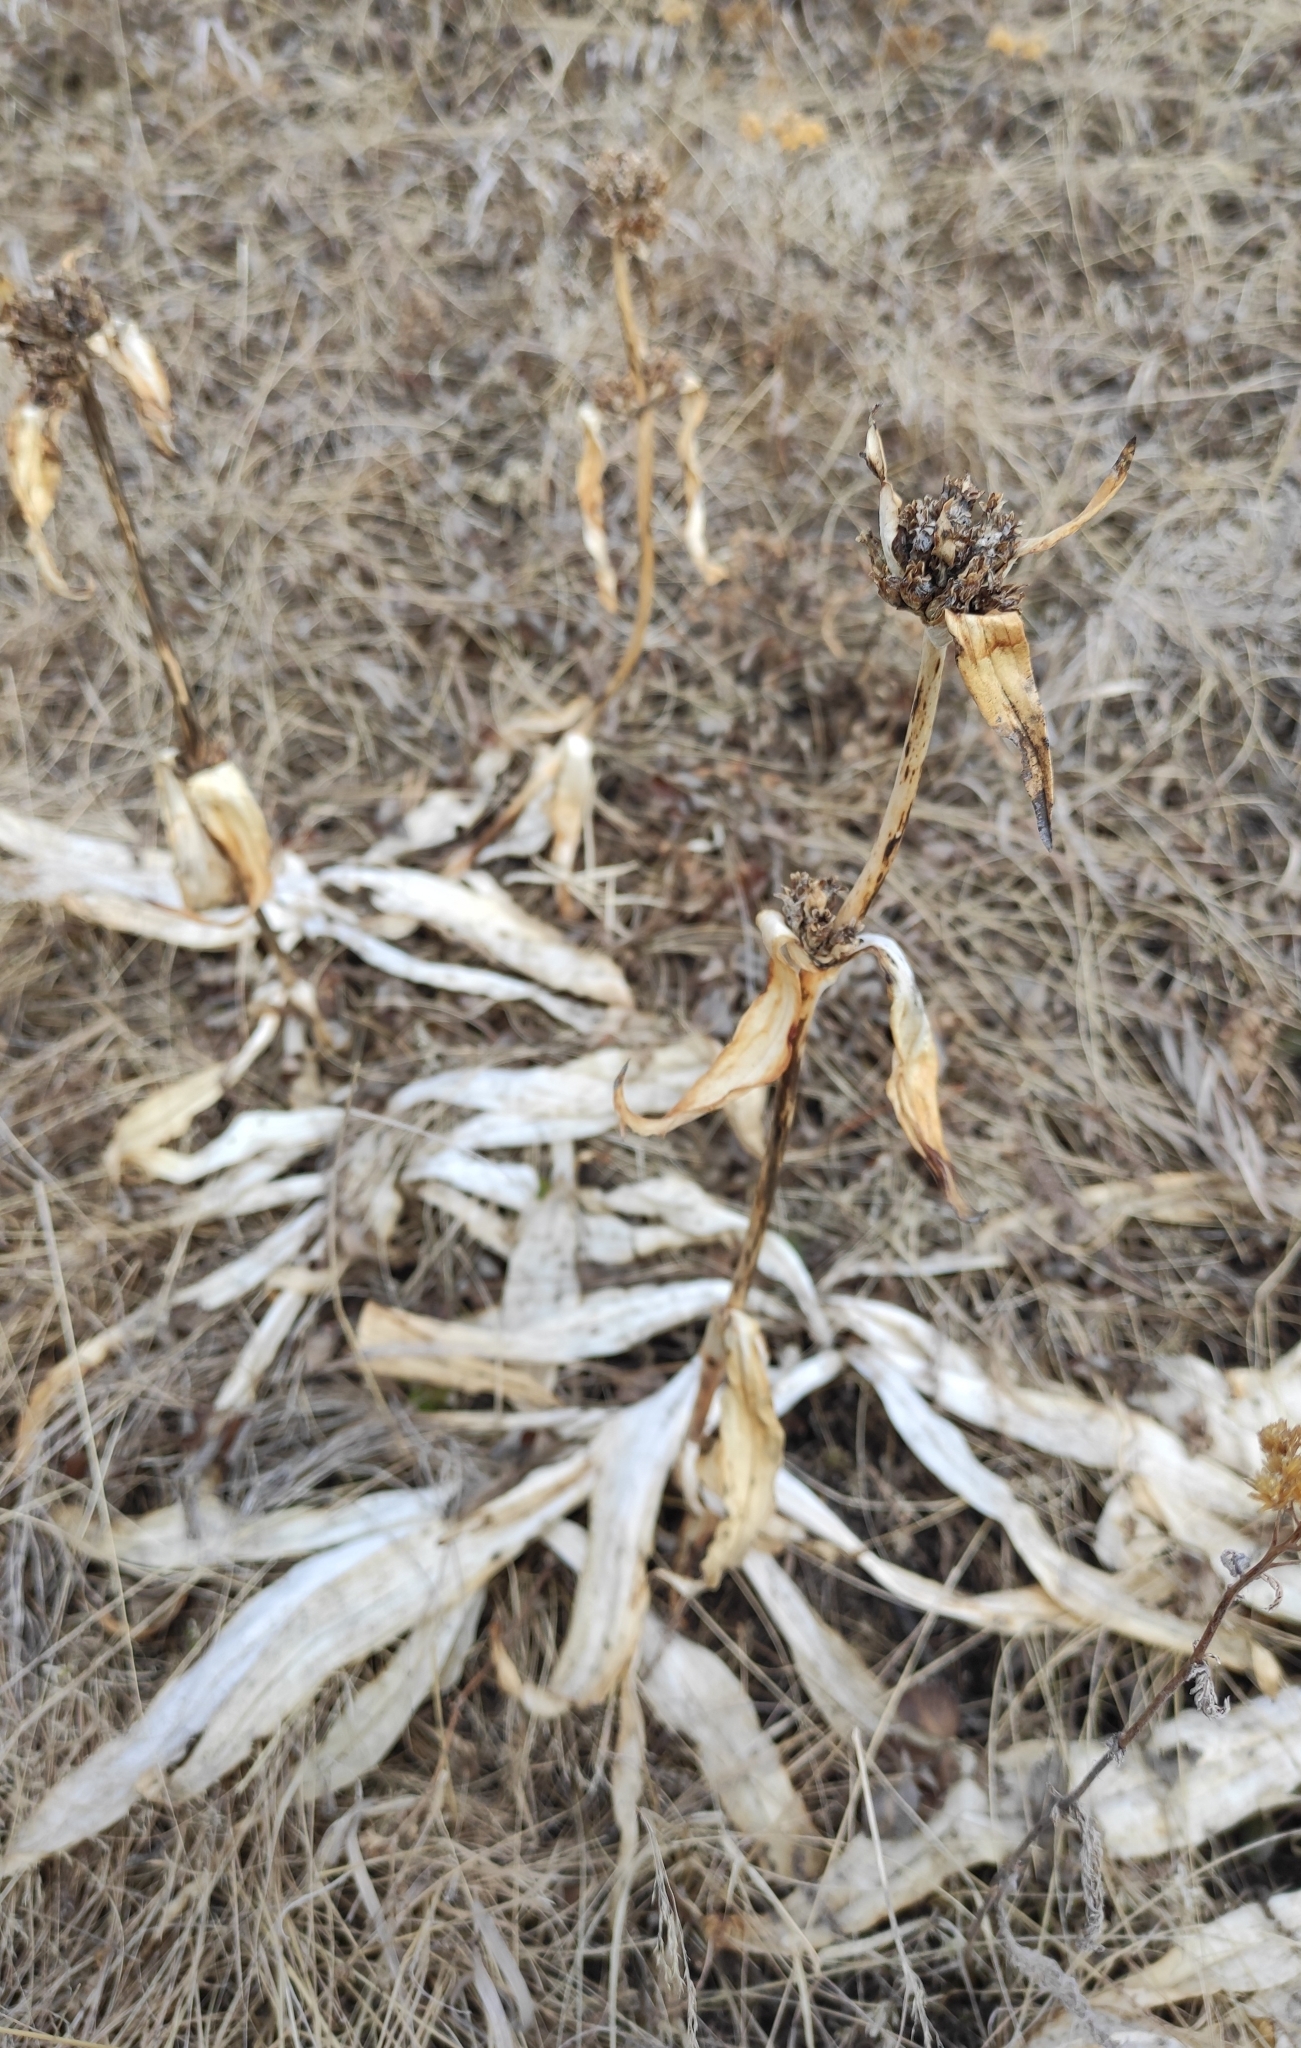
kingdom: Plantae
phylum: Tracheophyta
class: Magnoliopsida
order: Gentianales
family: Gentianaceae
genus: Gentiana
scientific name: Gentiana macrophylla
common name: Large-leaf gentian
